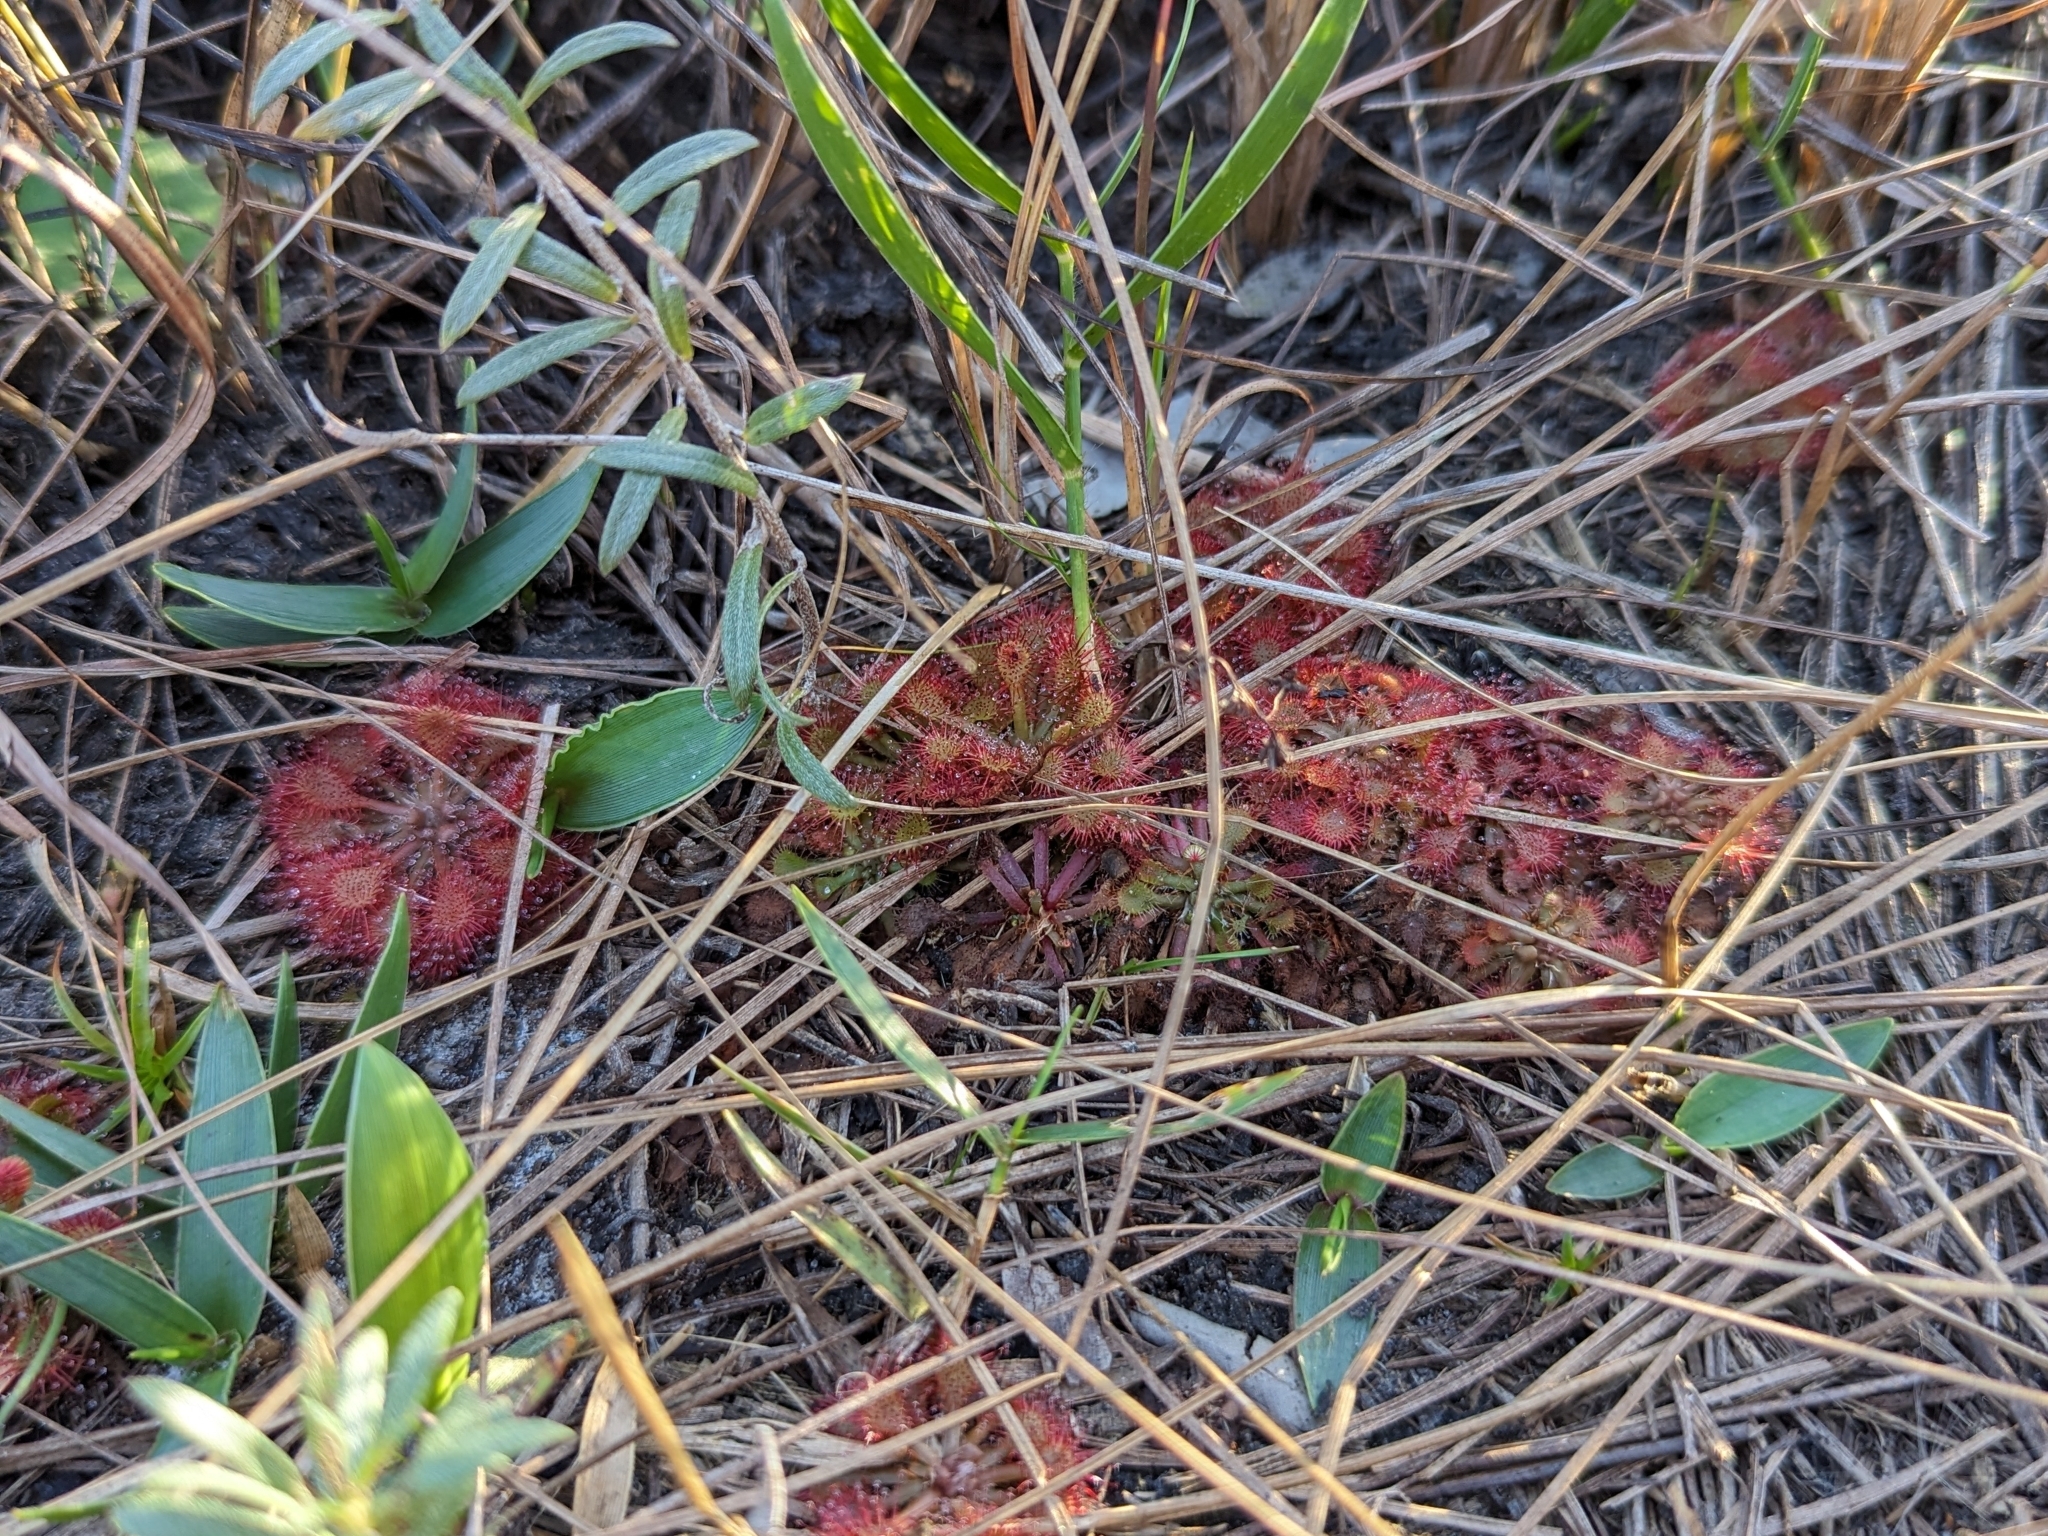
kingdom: Plantae
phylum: Tracheophyta
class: Magnoliopsida
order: Caryophyllales
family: Droseraceae
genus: Drosera
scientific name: Drosera capillaris
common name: Pink sundew
